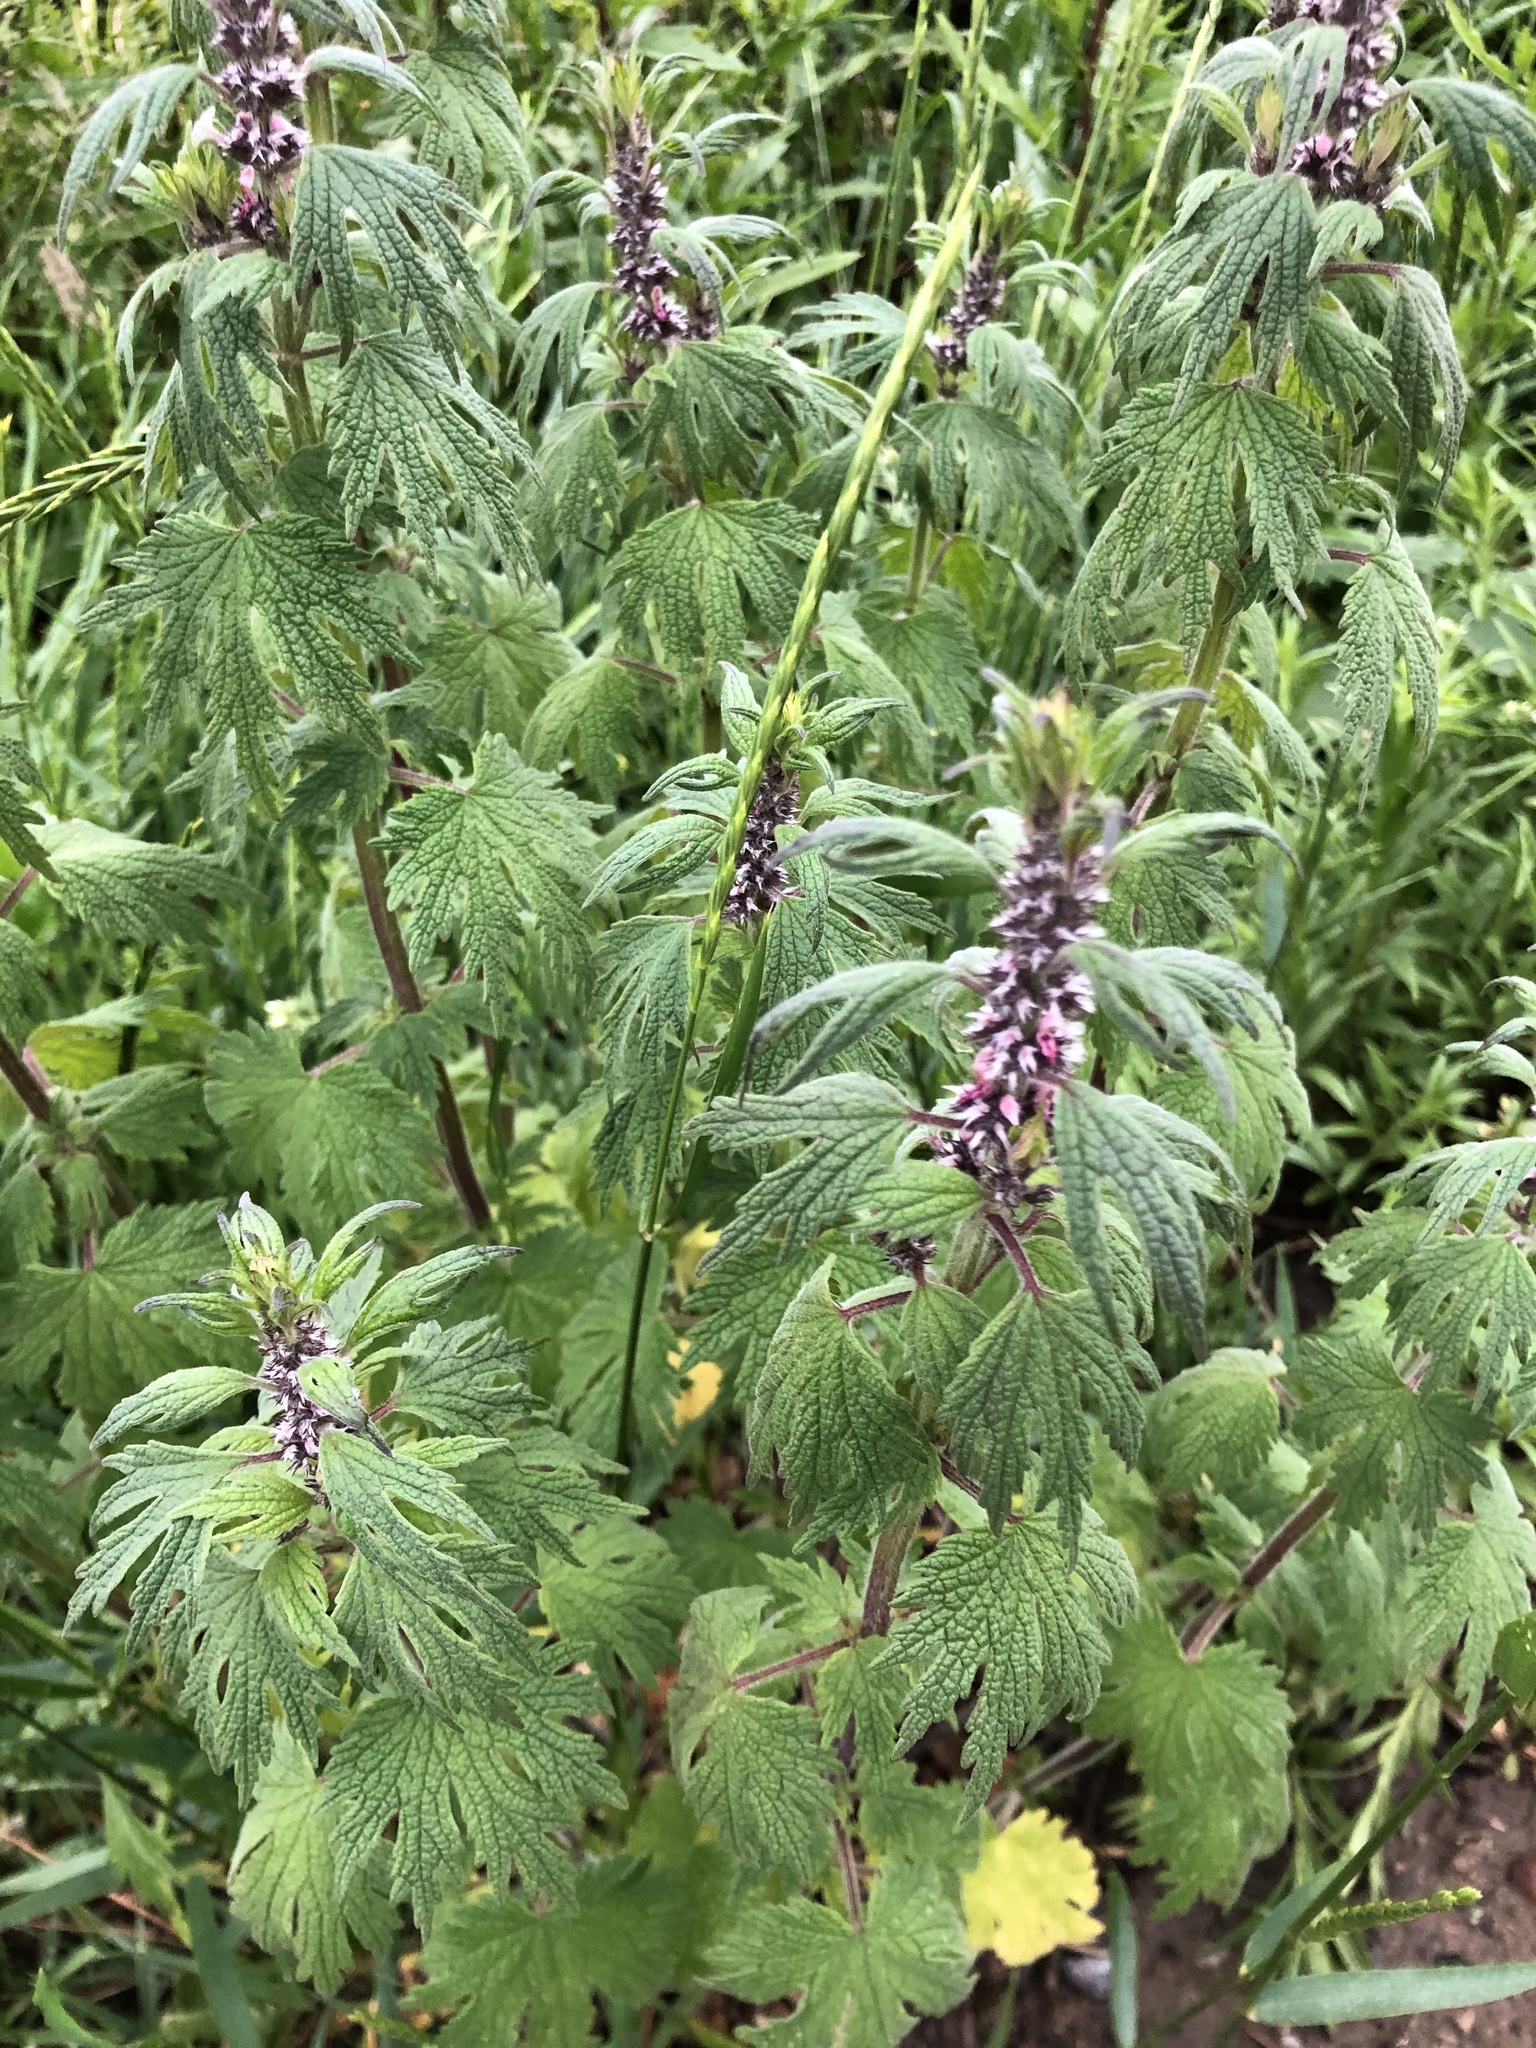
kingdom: Plantae
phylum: Tracheophyta
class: Magnoliopsida
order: Lamiales
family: Lamiaceae
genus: Leonurus
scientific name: Leonurus quinquelobatus
